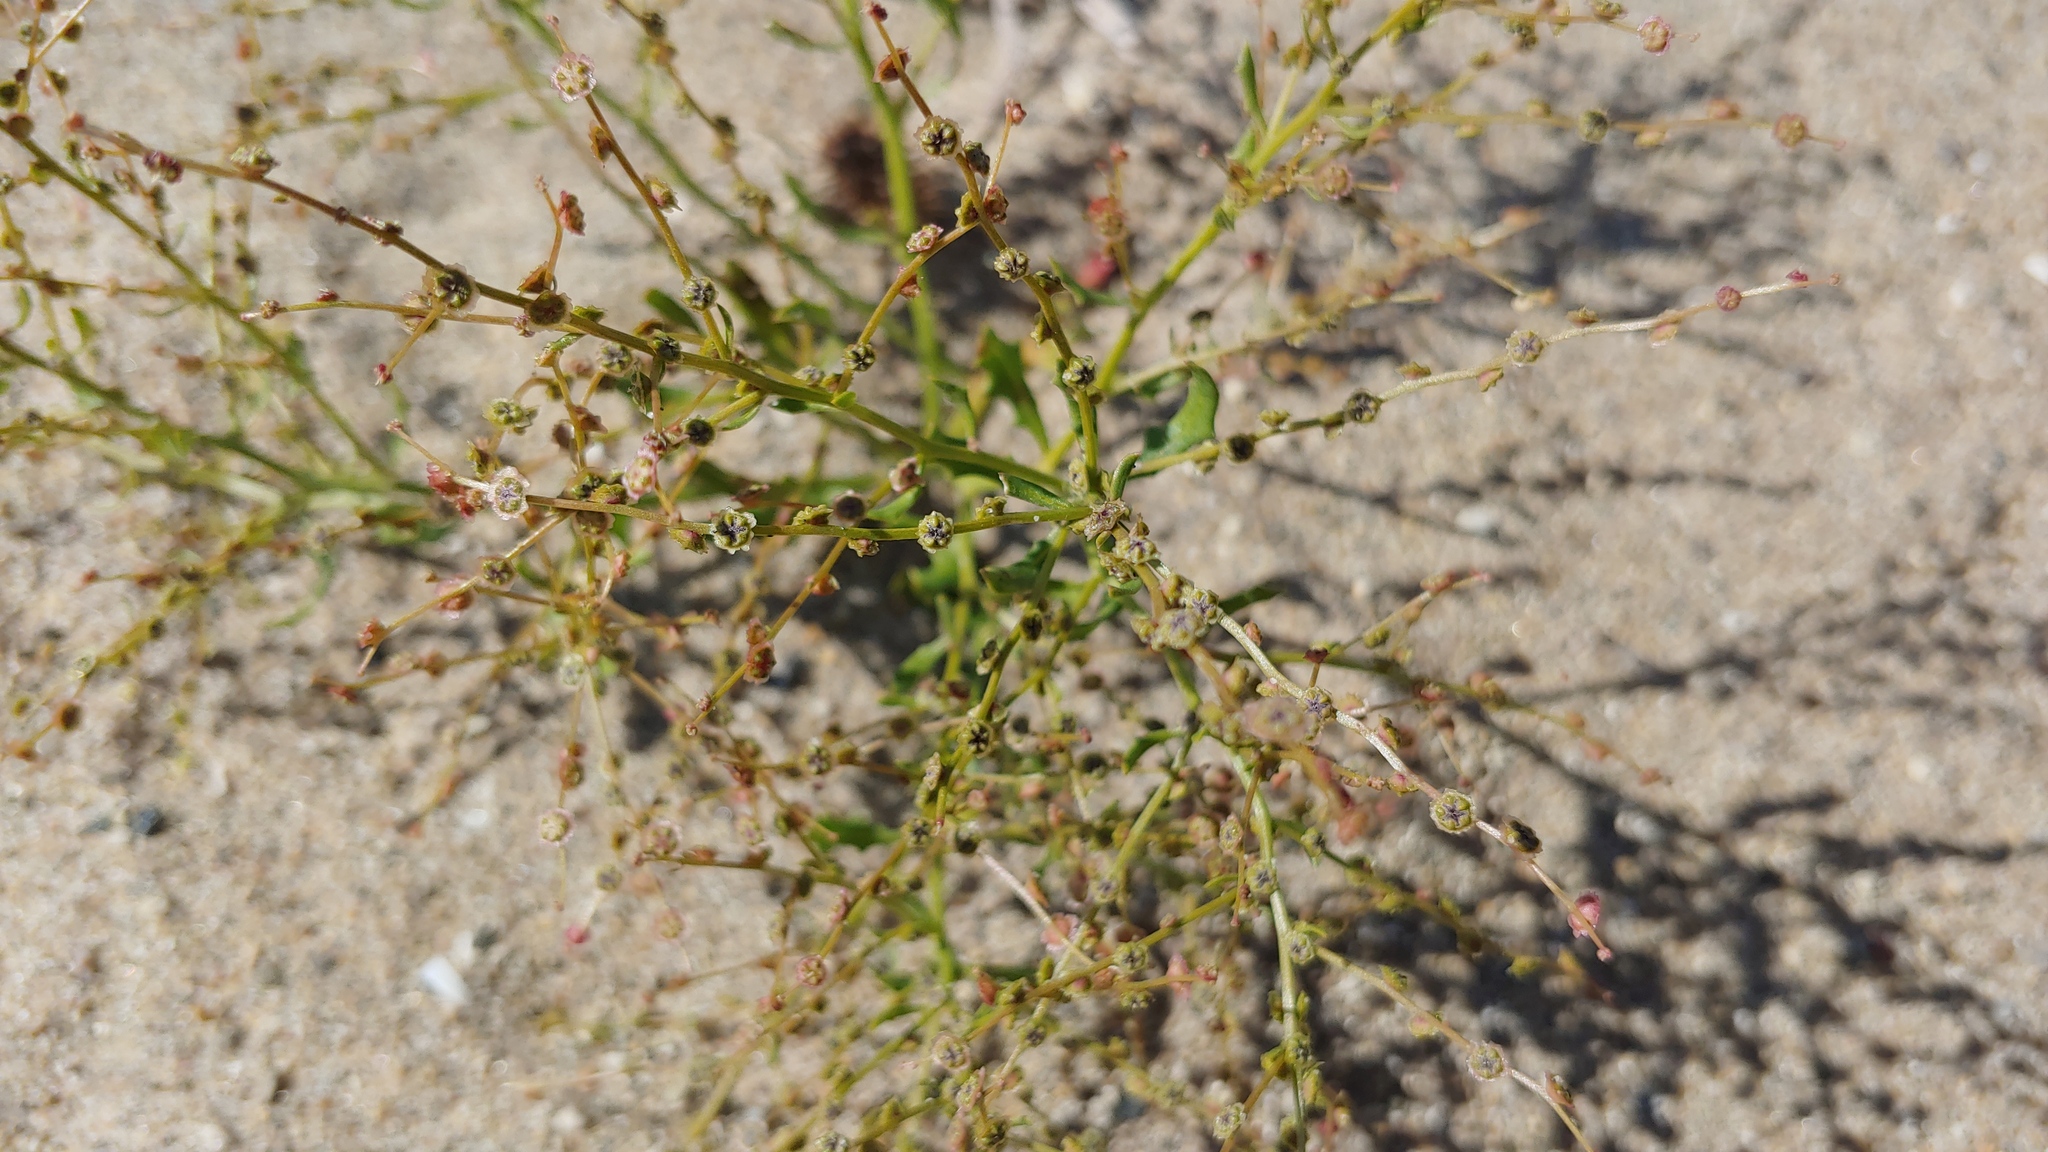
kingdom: Plantae
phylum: Tracheophyta
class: Magnoliopsida
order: Caryophyllales
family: Amaranthaceae
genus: Dysphania
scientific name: Dysphania atriplicifolia
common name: Plains tumbleweed
